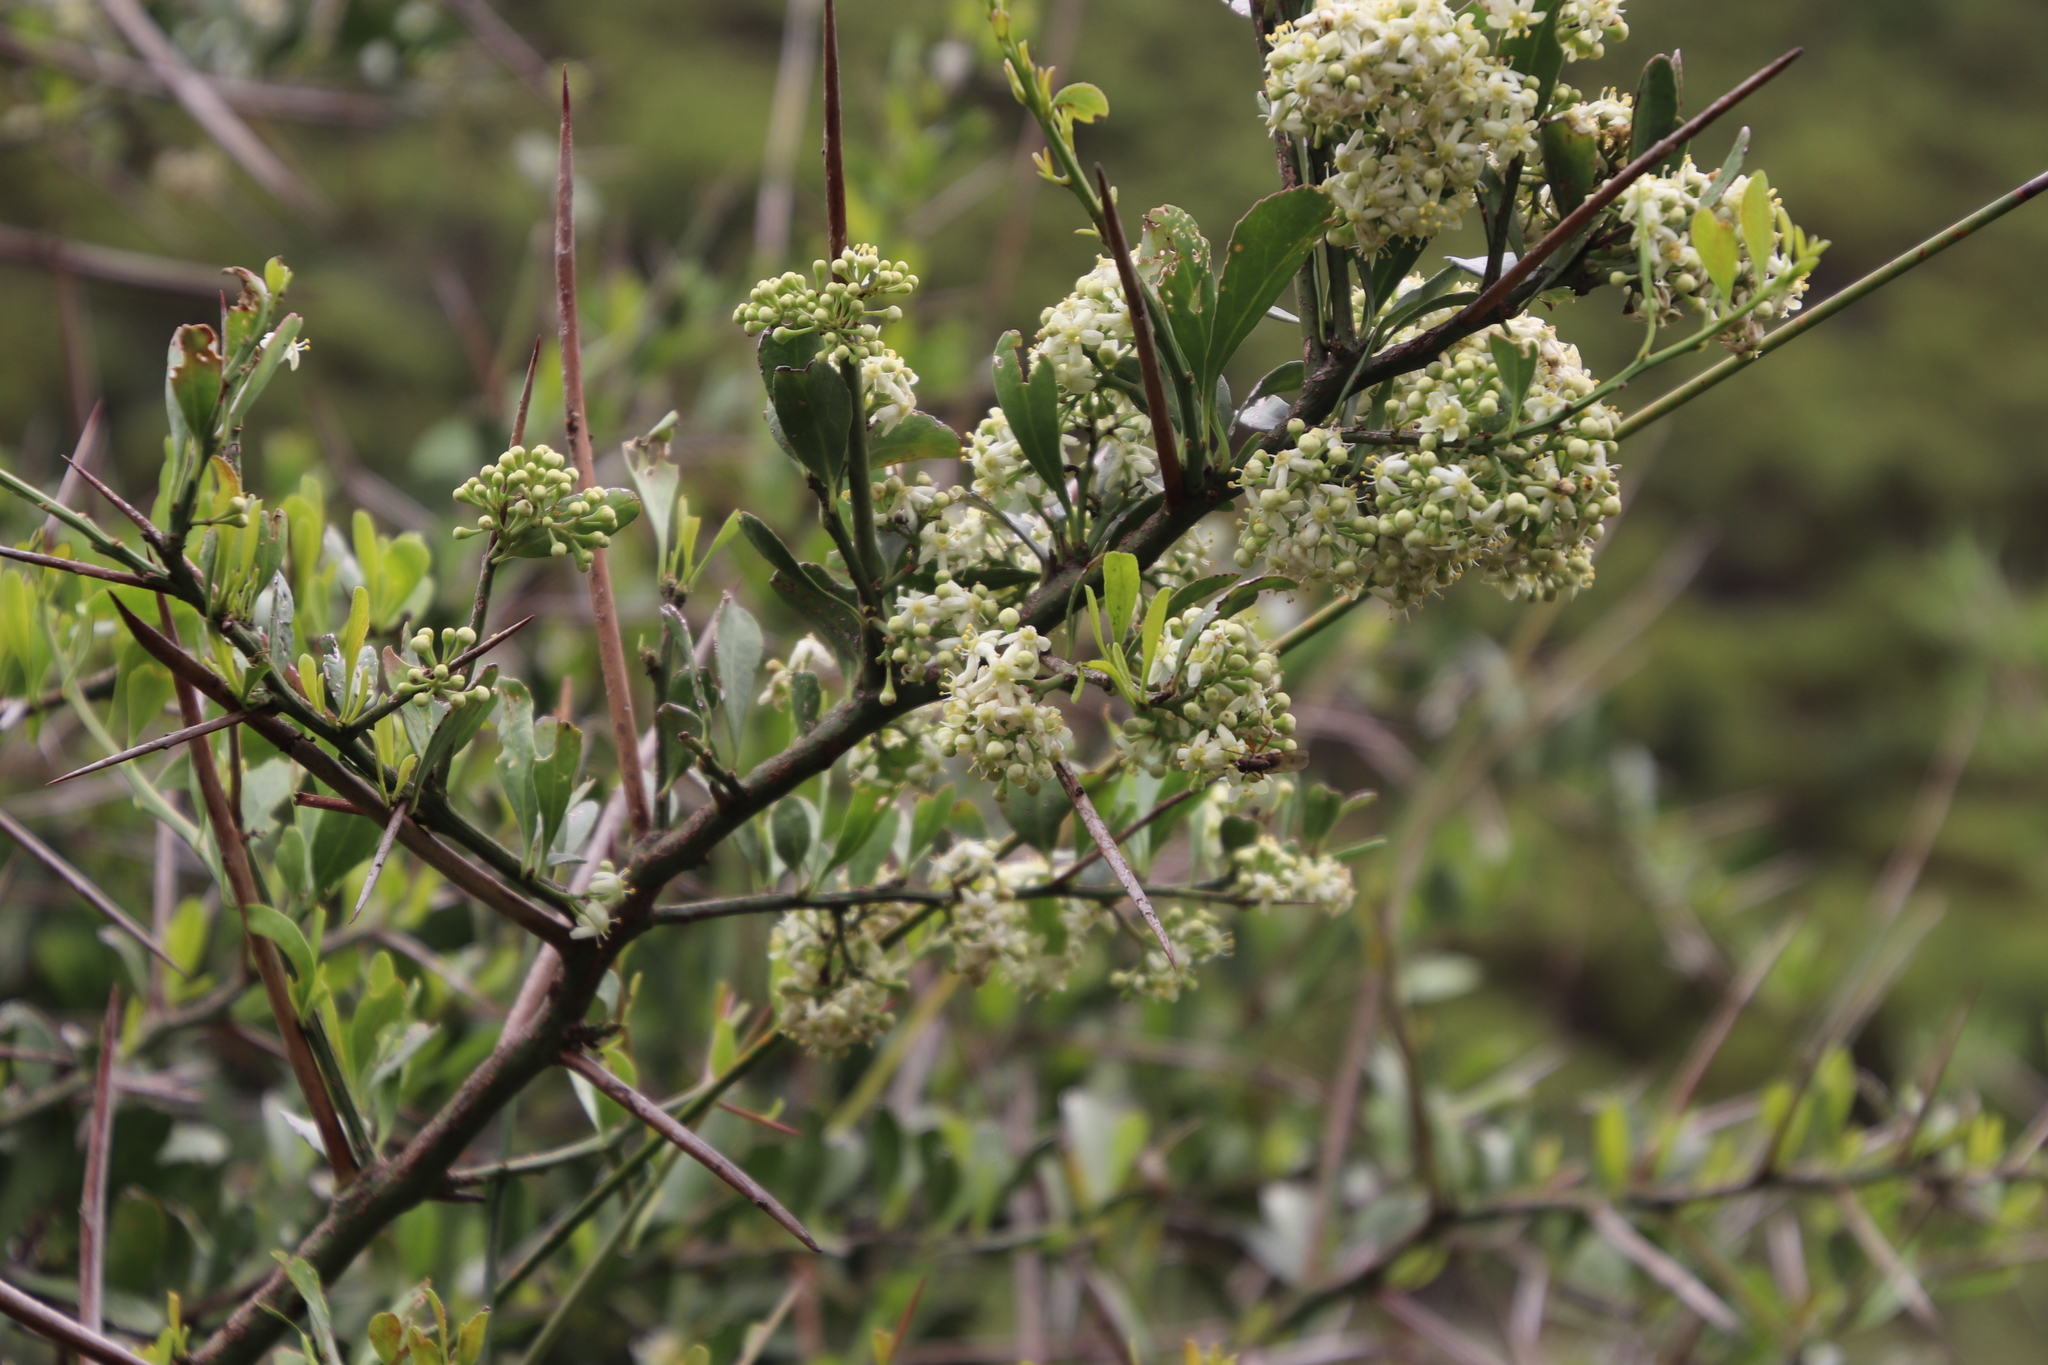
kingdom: Plantae
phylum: Tracheophyta
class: Magnoliopsida
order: Celastrales
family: Celastraceae
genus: Gymnosporia
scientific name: Gymnosporia buxifolia
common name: Common spike-thorn
